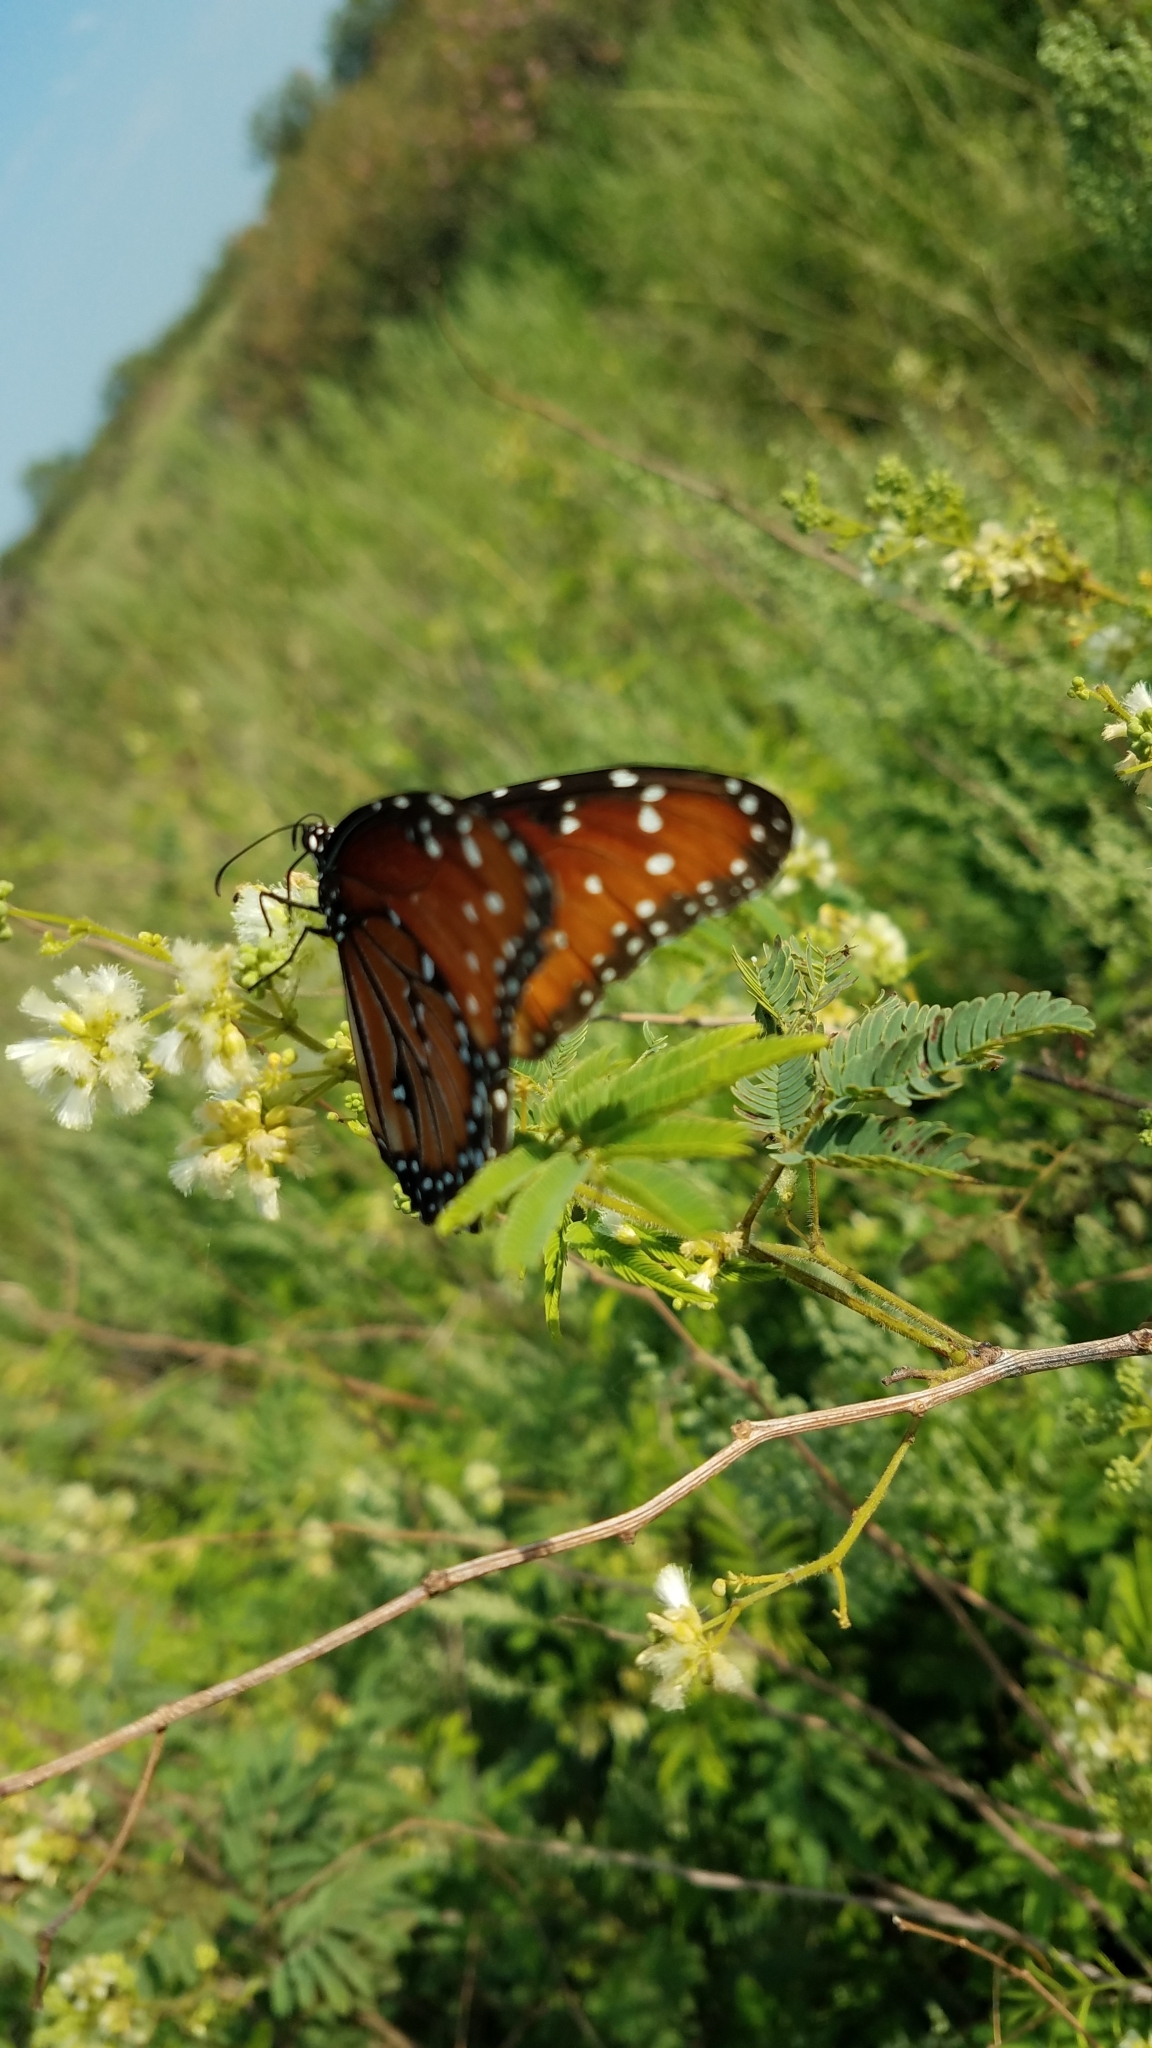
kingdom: Animalia
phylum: Arthropoda
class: Insecta
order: Lepidoptera
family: Nymphalidae
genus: Danaus
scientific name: Danaus gilippus
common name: Queen
